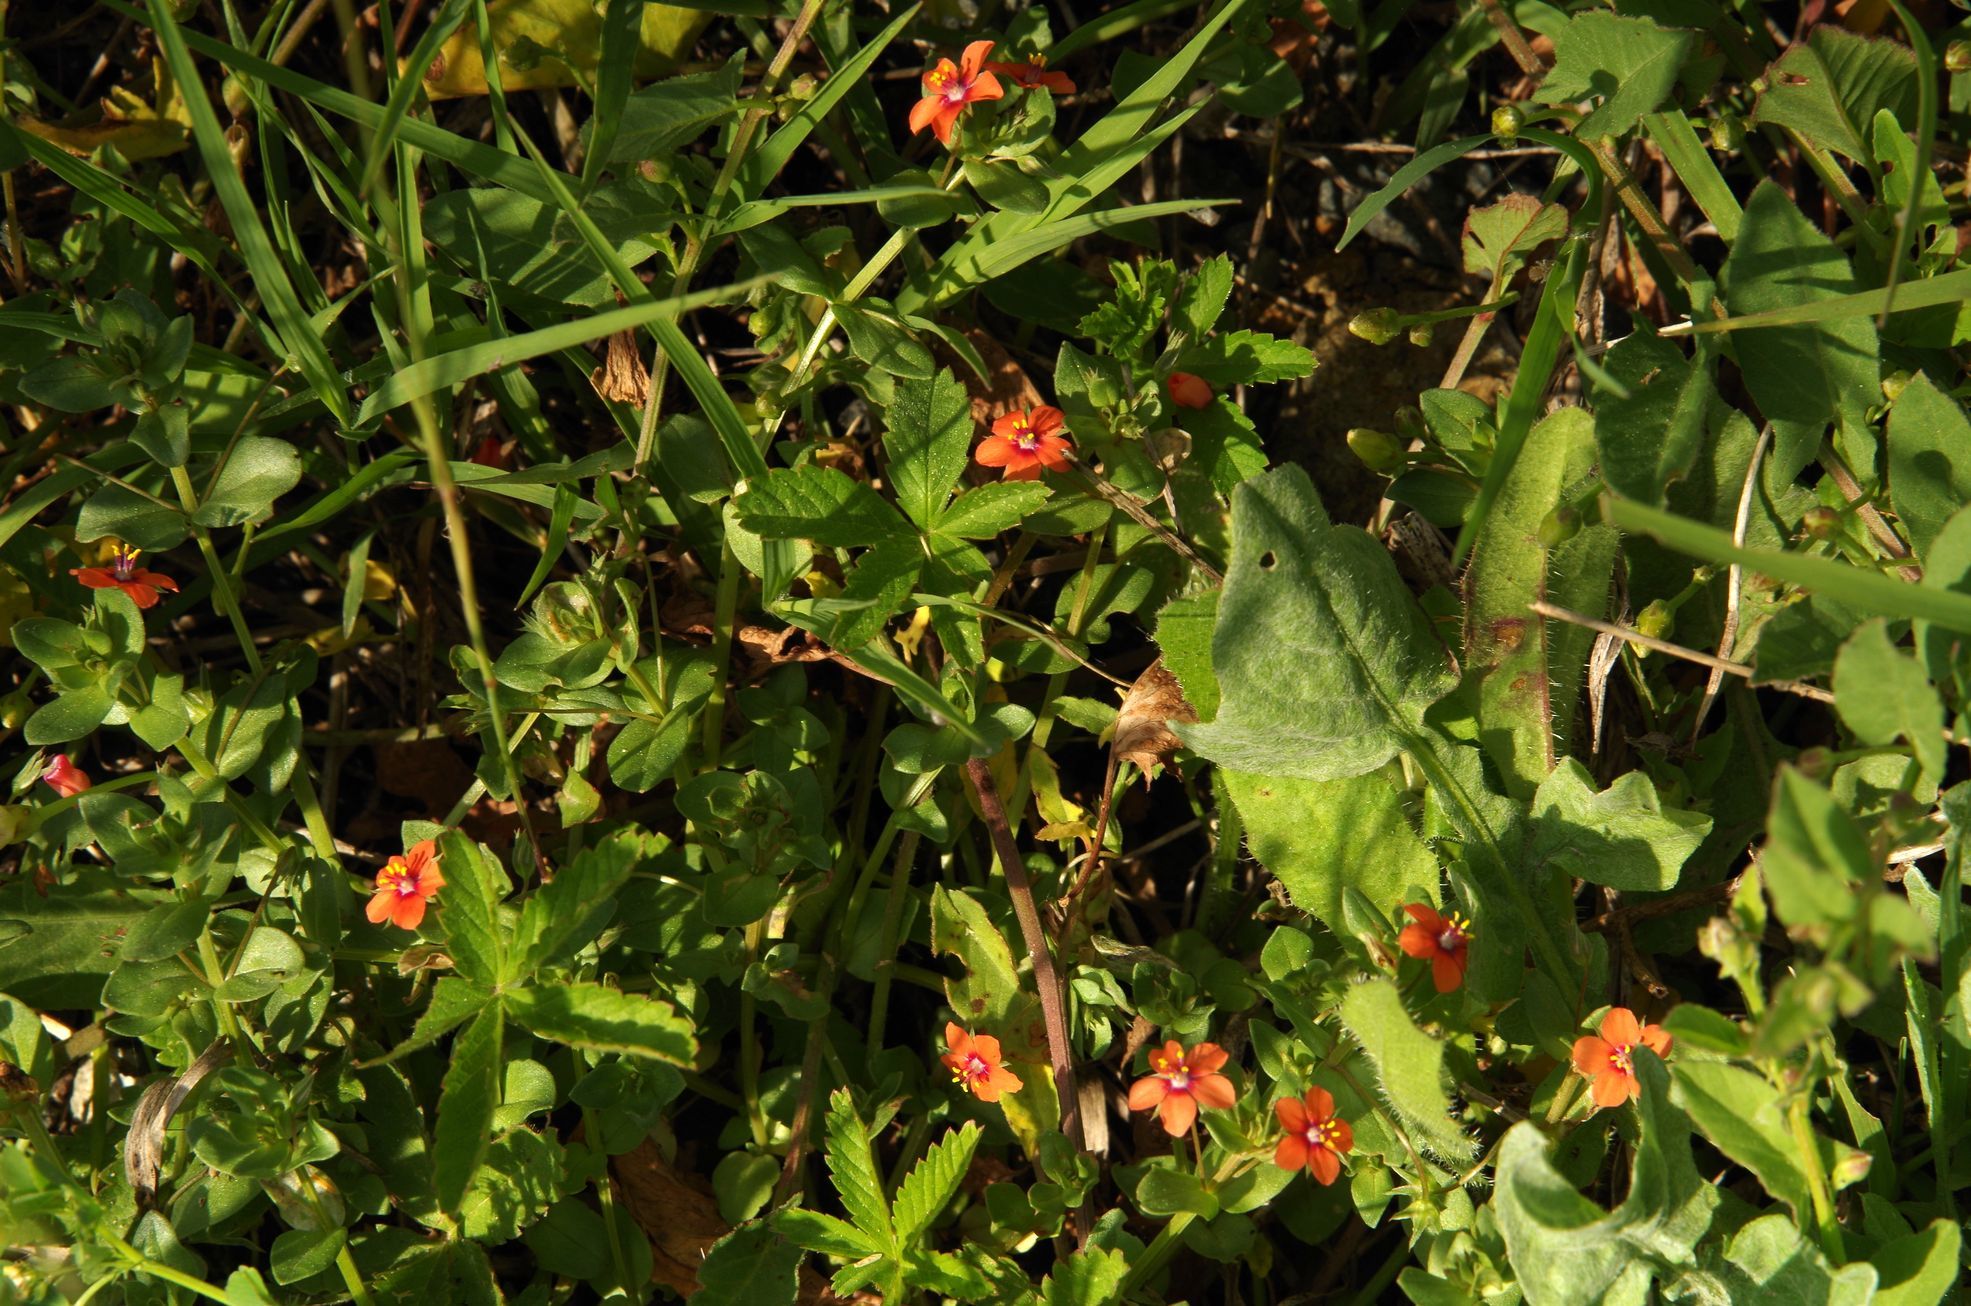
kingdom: Plantae
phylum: Tracheophyta
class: Magnoliopsida
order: Ericales
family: Primulaceae
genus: Lysimachia
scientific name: Lysimachia arvensis
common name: Scarlet pimpernel
